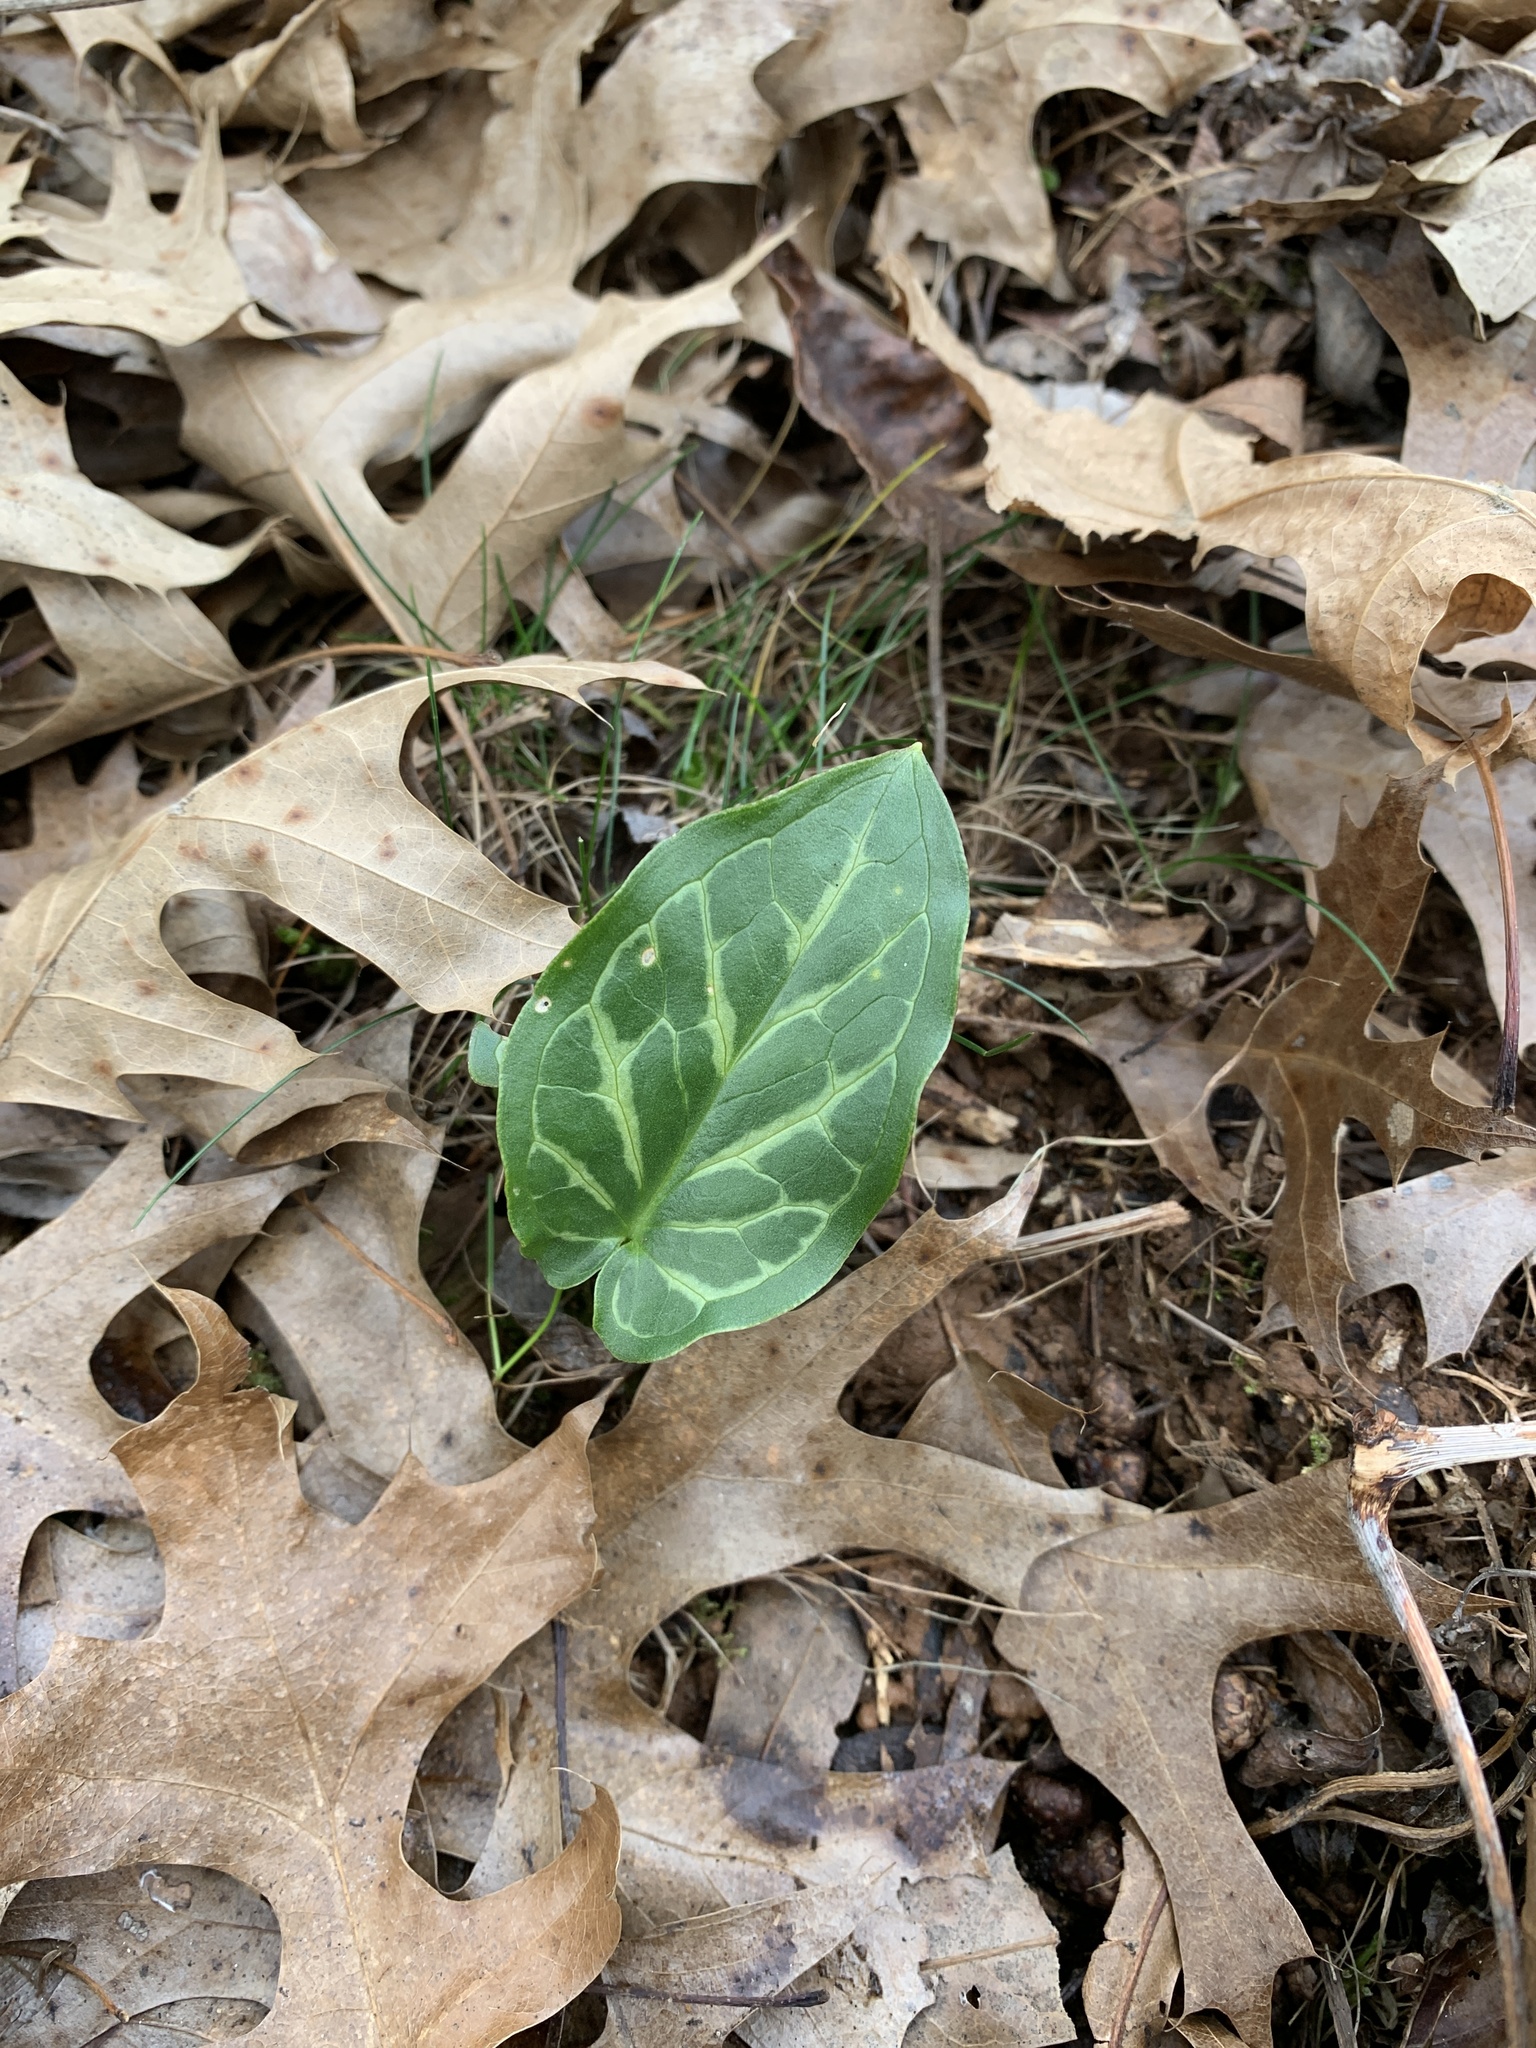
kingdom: Plantae
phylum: Tracheophyta
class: Liliopsida
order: Alismatales
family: Araceae
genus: Arum
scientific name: Arum italicum
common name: Italian lords-and-ladies
